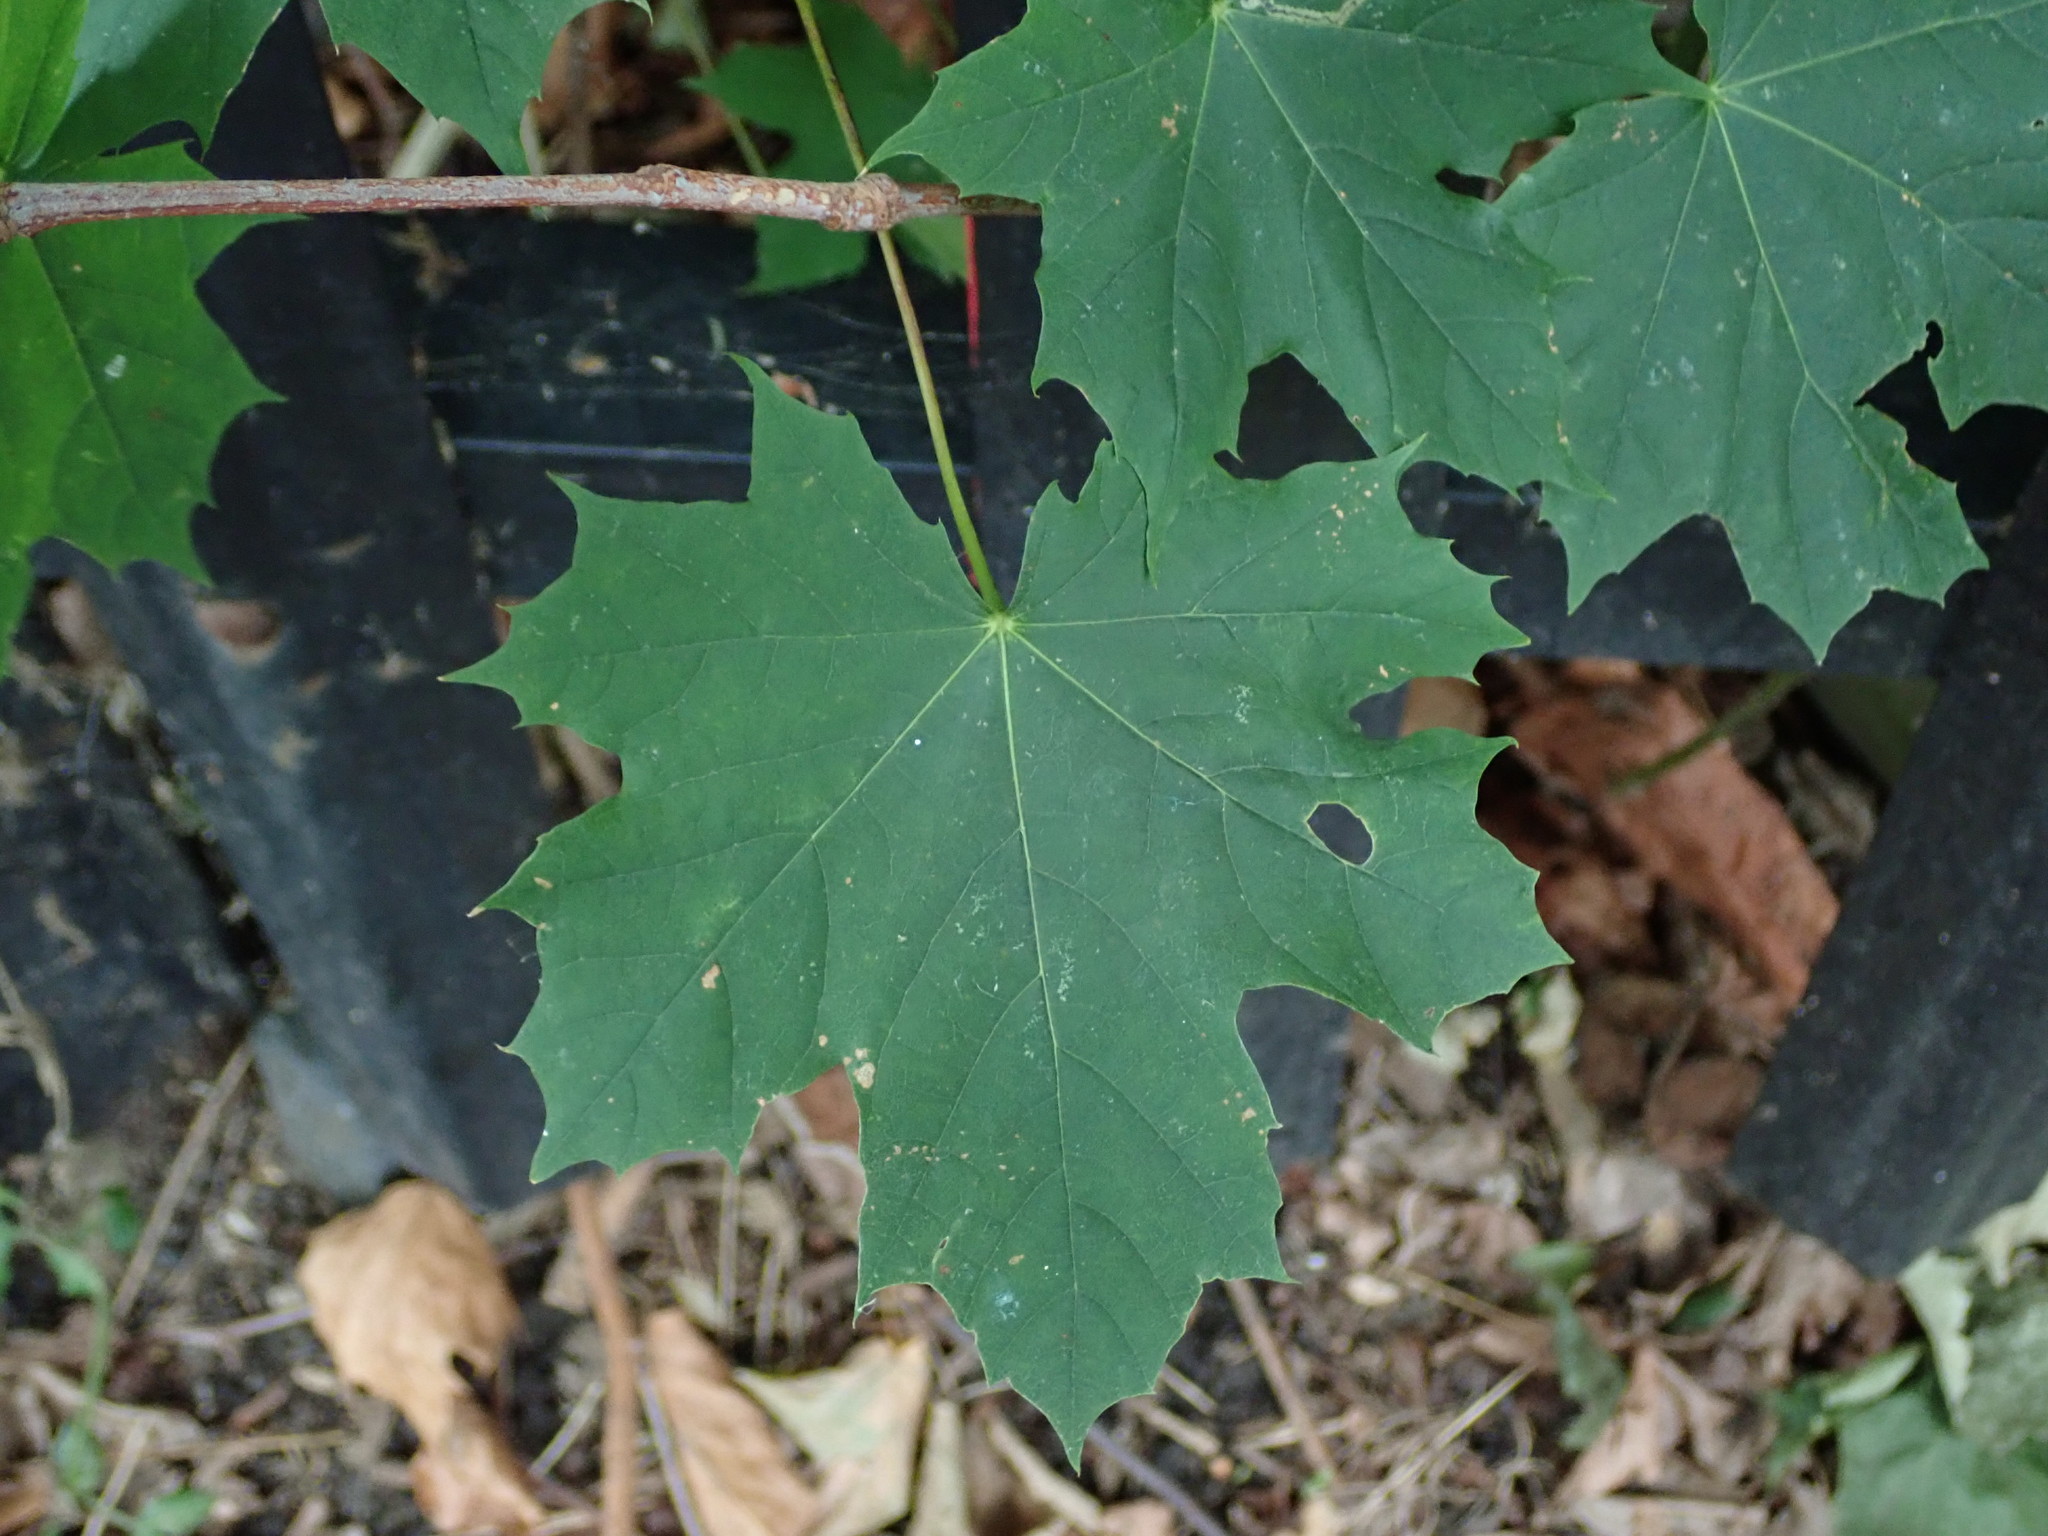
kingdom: Plantae
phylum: Tracheophyta
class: Magnoliopsida
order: Sapindales
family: Sapindaceae
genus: Acer
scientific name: Acer platanoides
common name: Norway maple
